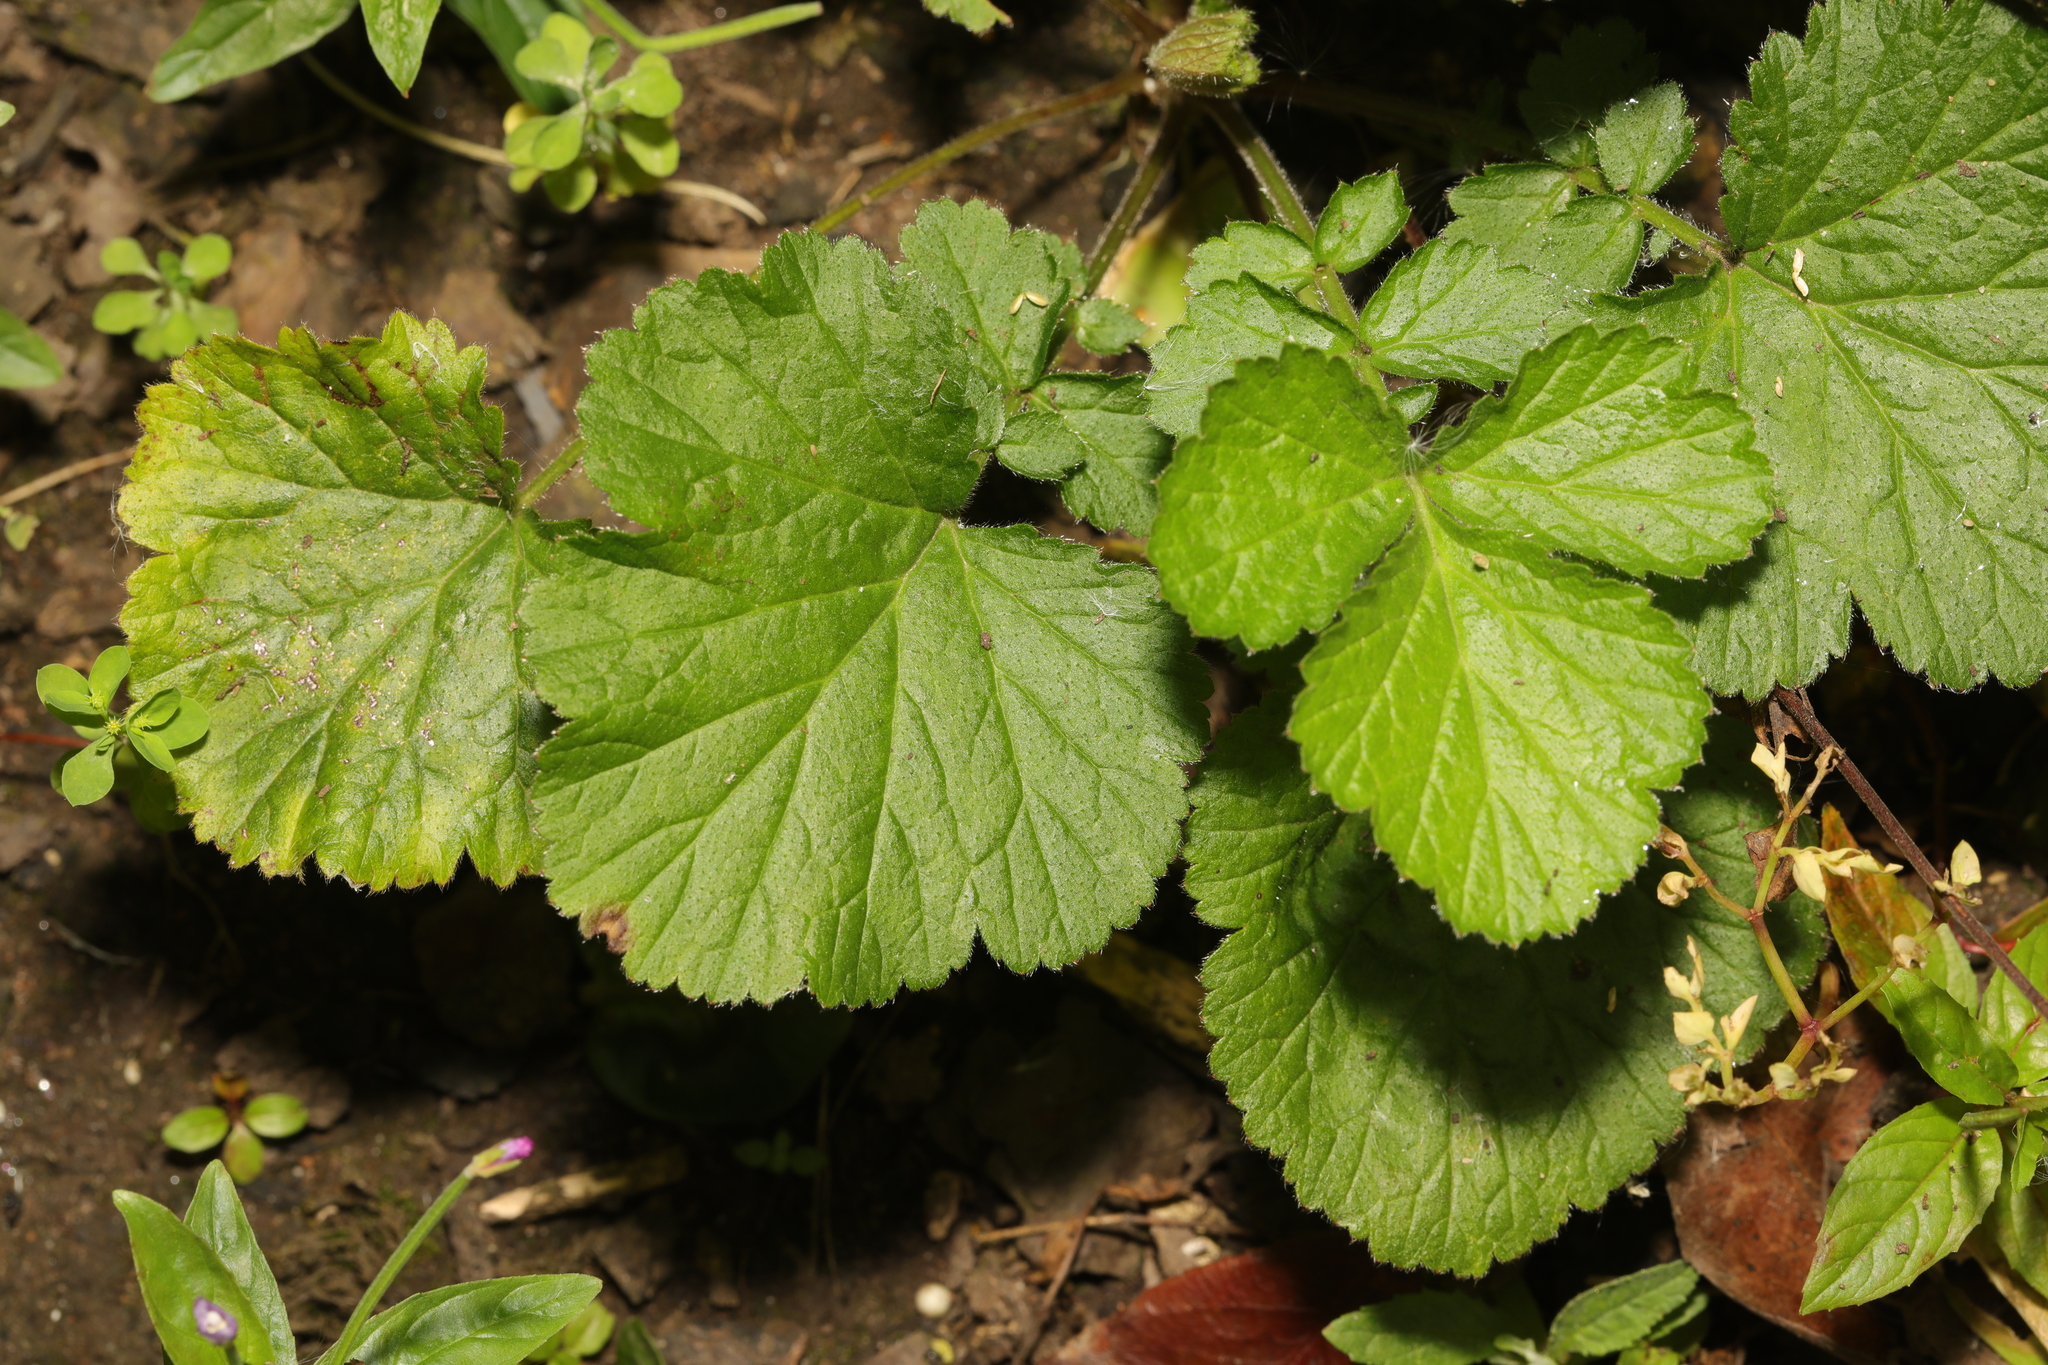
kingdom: Plantae
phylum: Tracheophyta
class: Magnoliopsida
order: Rosales
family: Rosaceae
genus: Geum
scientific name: Geum urbanum
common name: Wood avens
